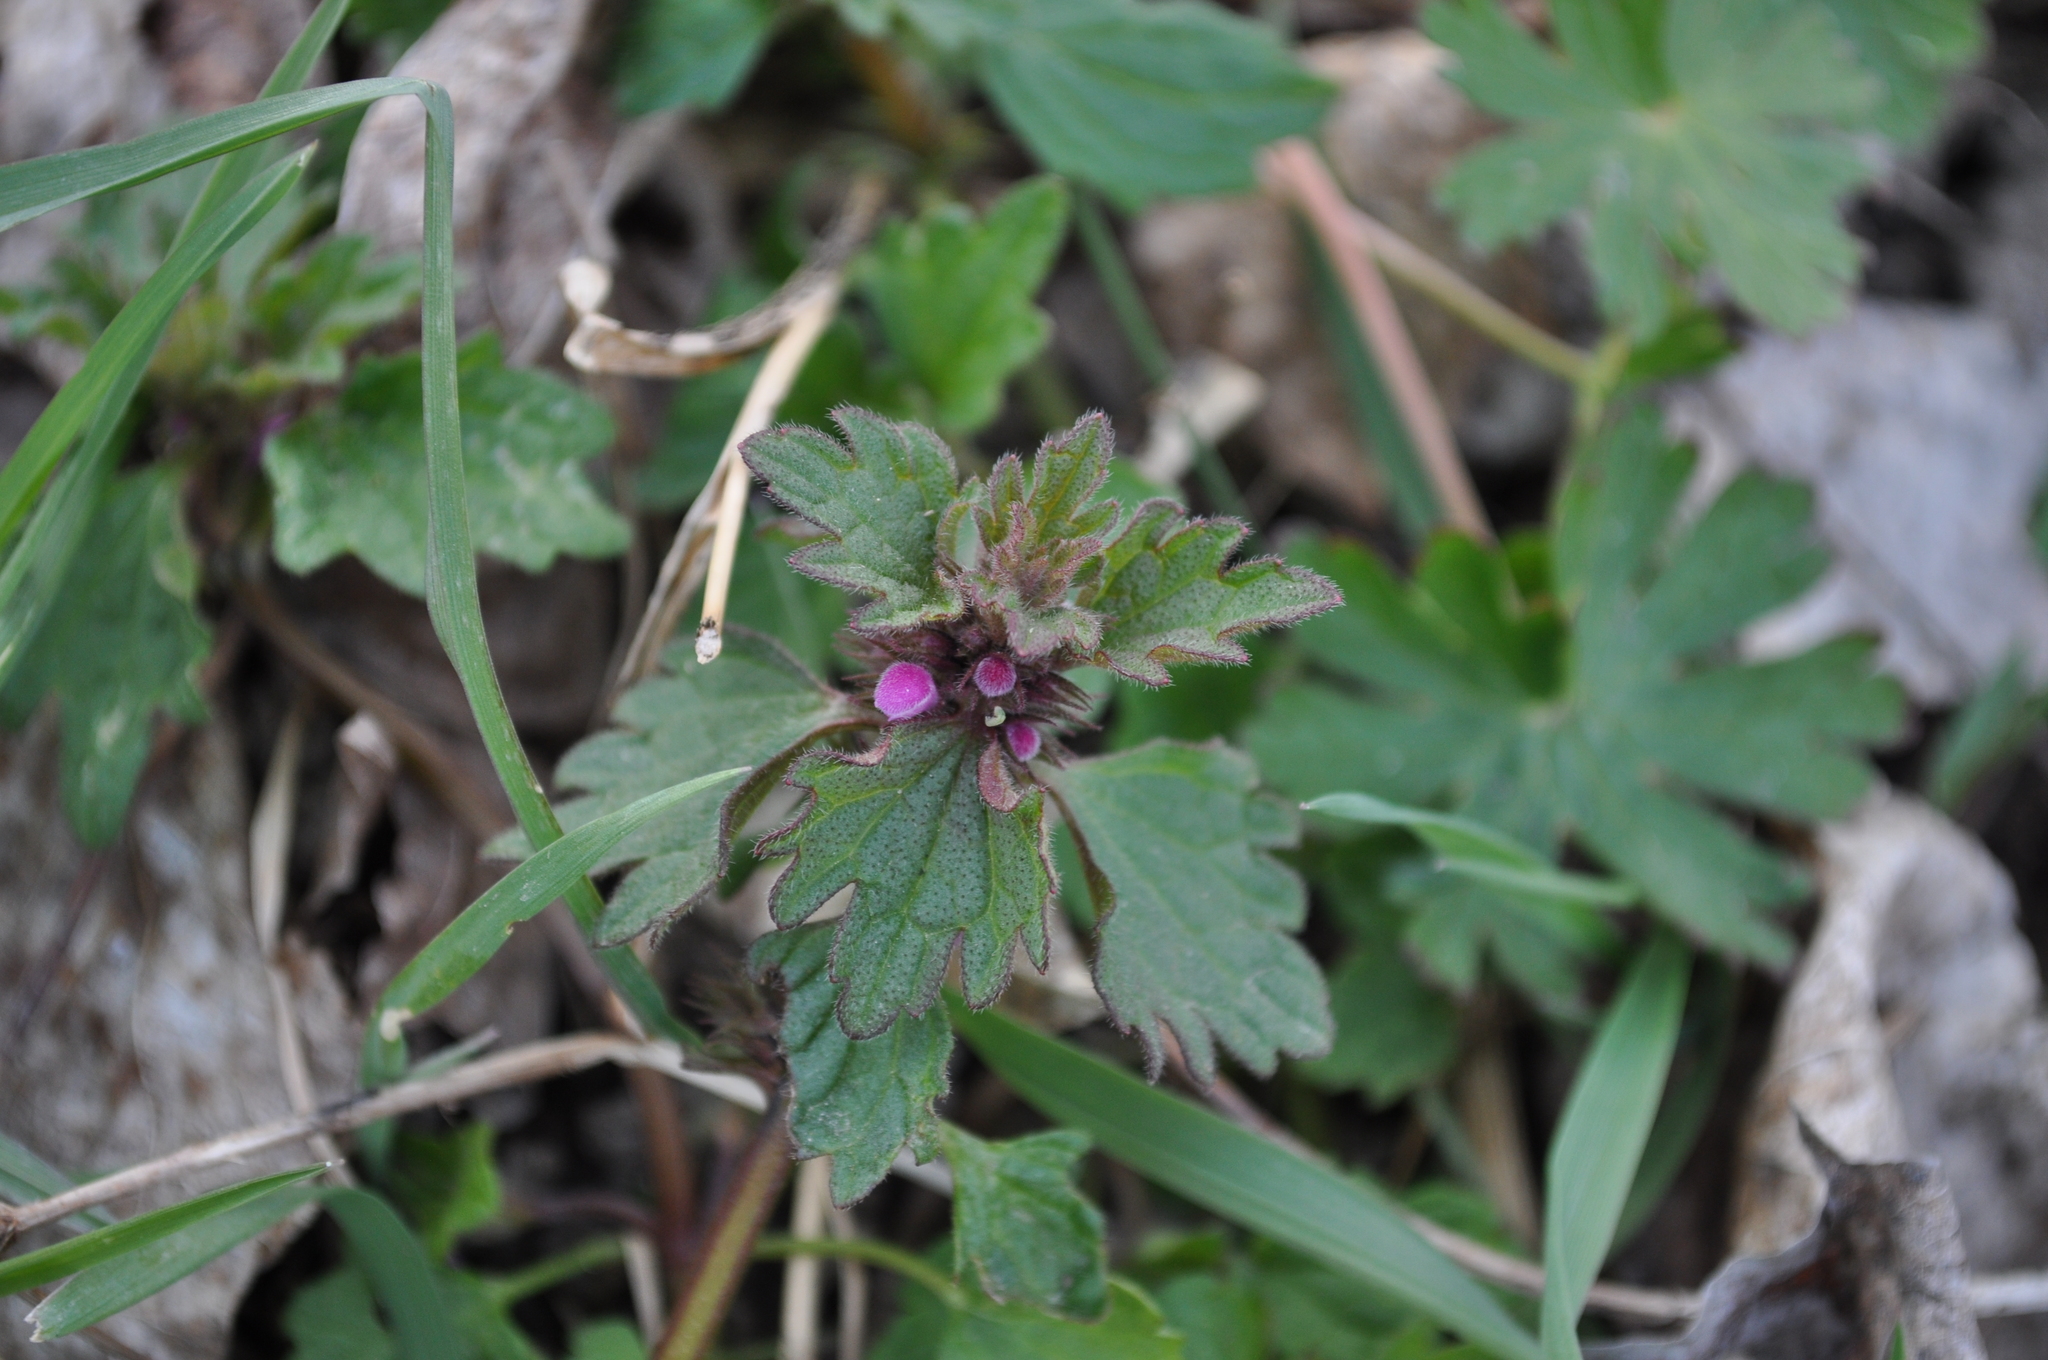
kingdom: Plantae
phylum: Tracheophyta
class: Magnoliopsida
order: Lamiales
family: Lamiaceae
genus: Lamium
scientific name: Lamium hybridum
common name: Cut-leaved dead-nettle
